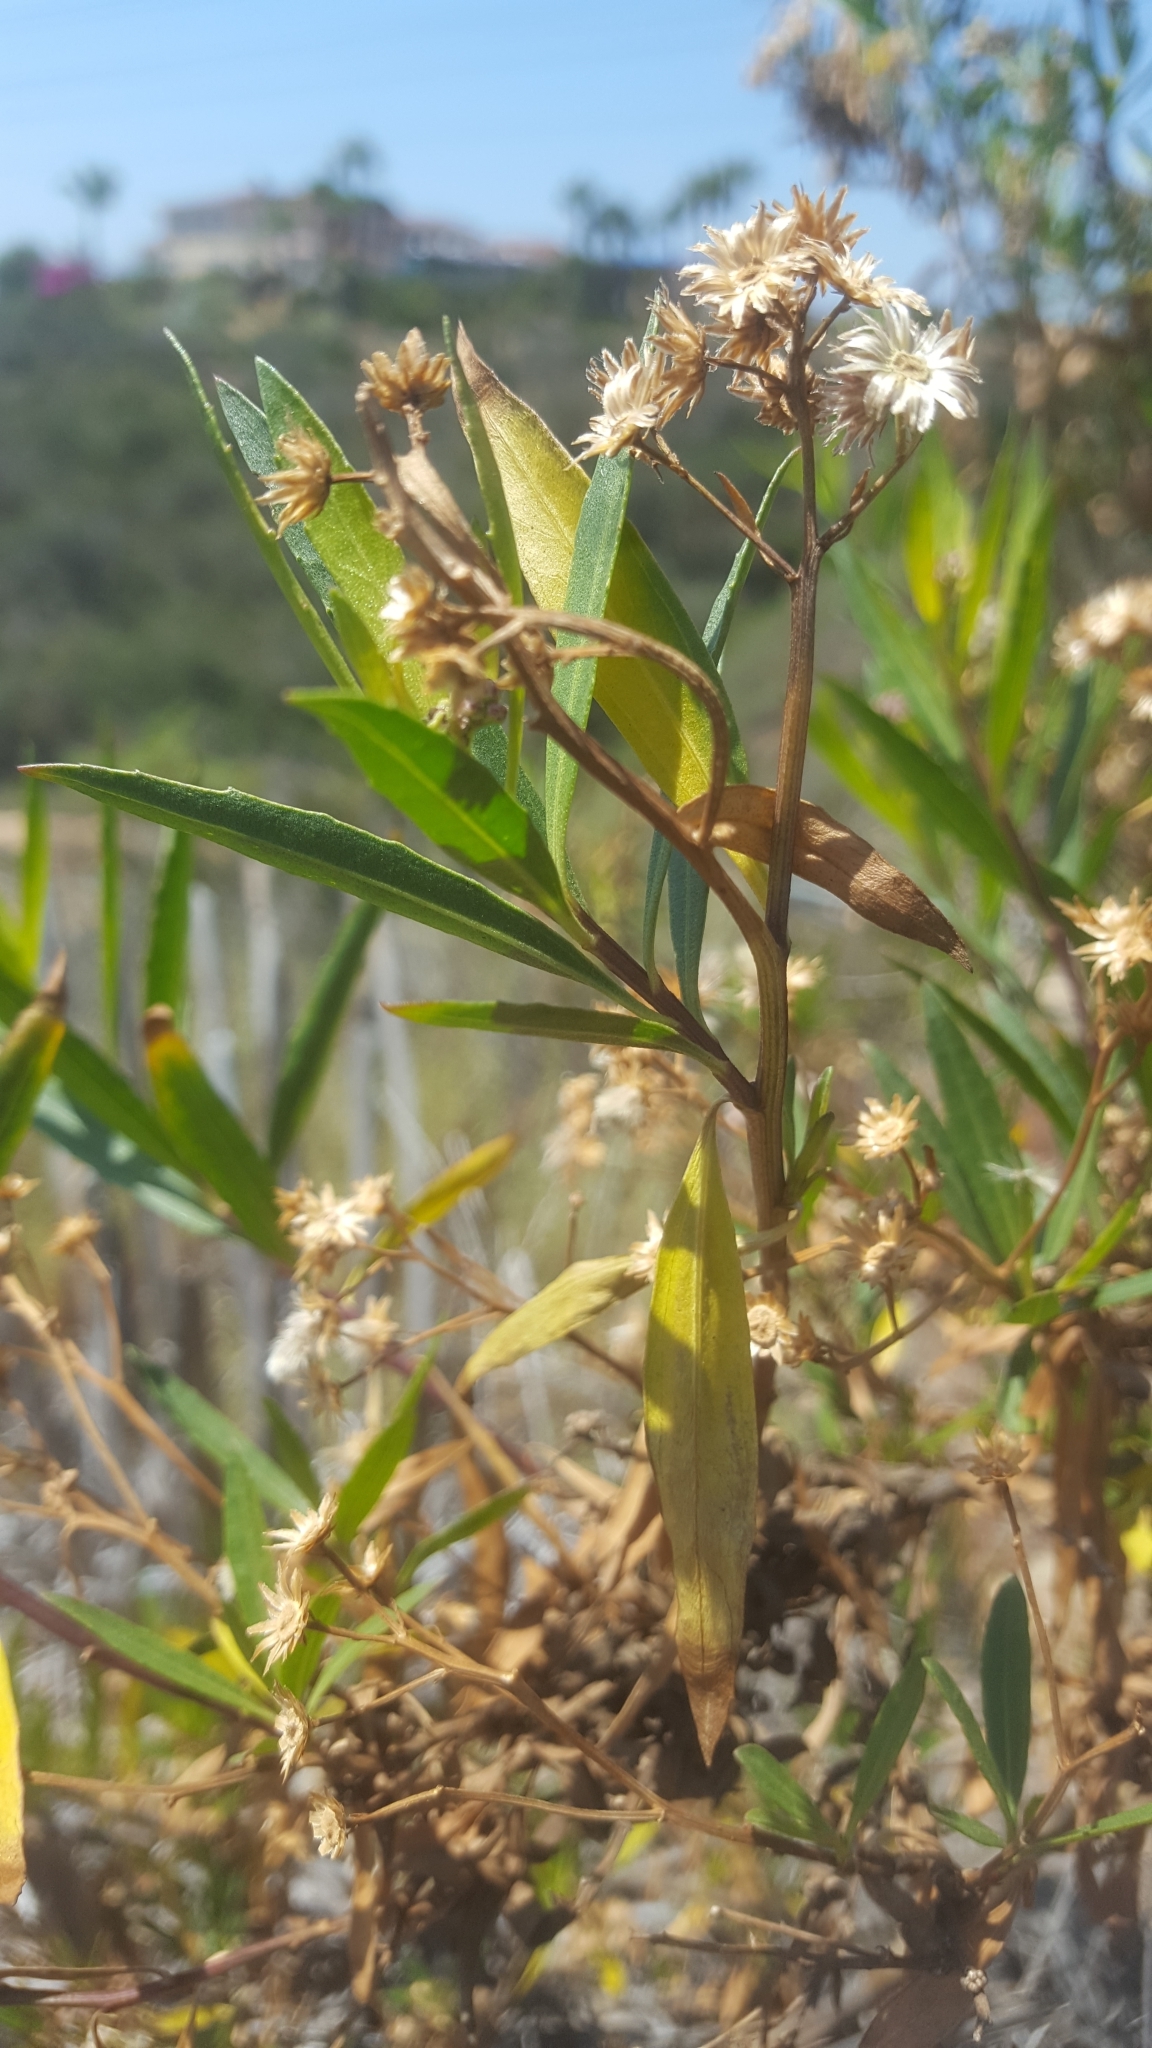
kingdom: Plantae
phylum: Tracheophyta
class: Magnoliopsida
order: Asterales
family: Asteraceae
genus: Baccharis
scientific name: Baccharis salicifolia
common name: Sticky baccharis
